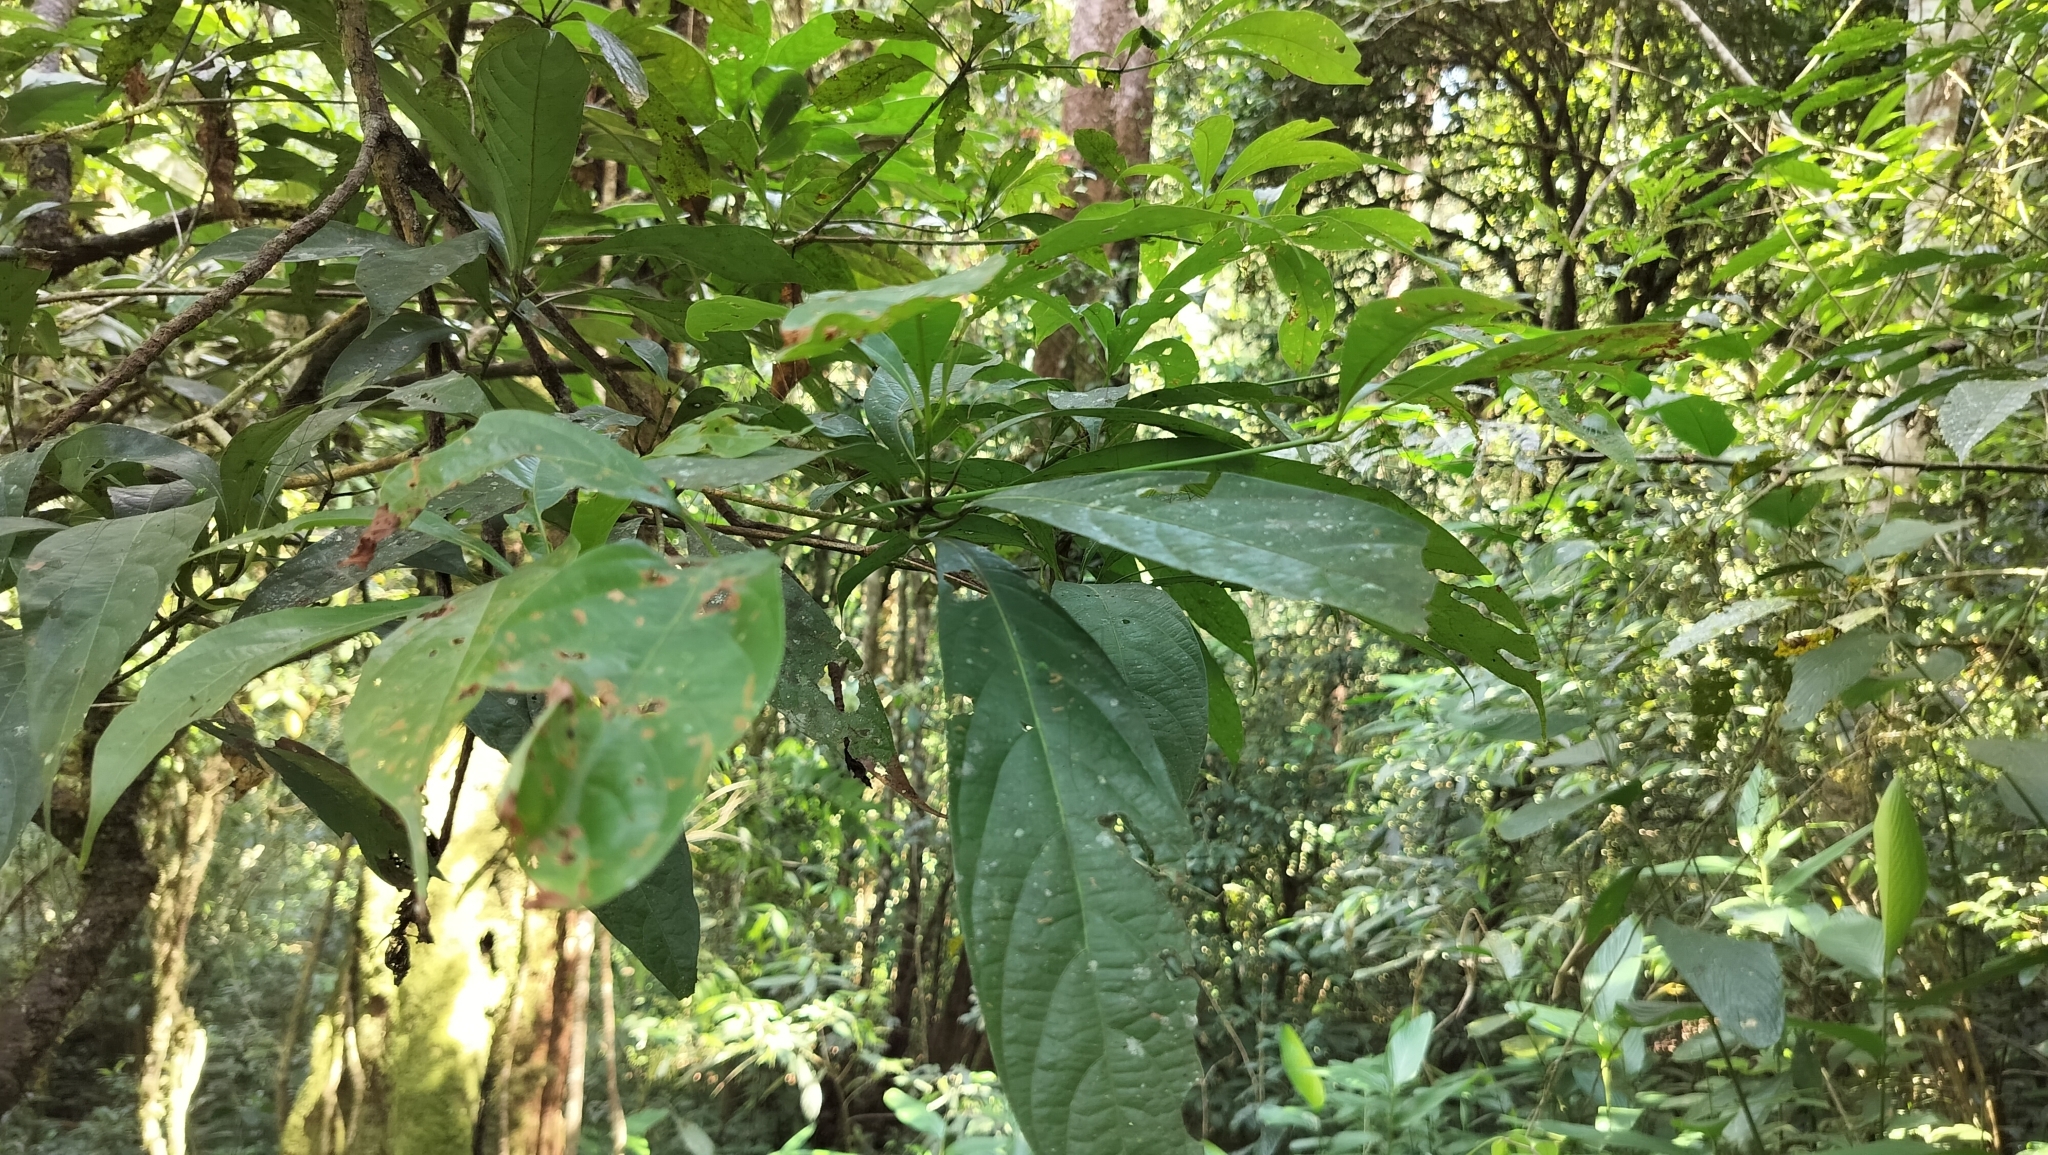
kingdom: Plantae
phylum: Tracheophyta
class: Magnoliopsida
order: Laurales
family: Lauraceae
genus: Phoebe
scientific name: Phoebe lanceolata
